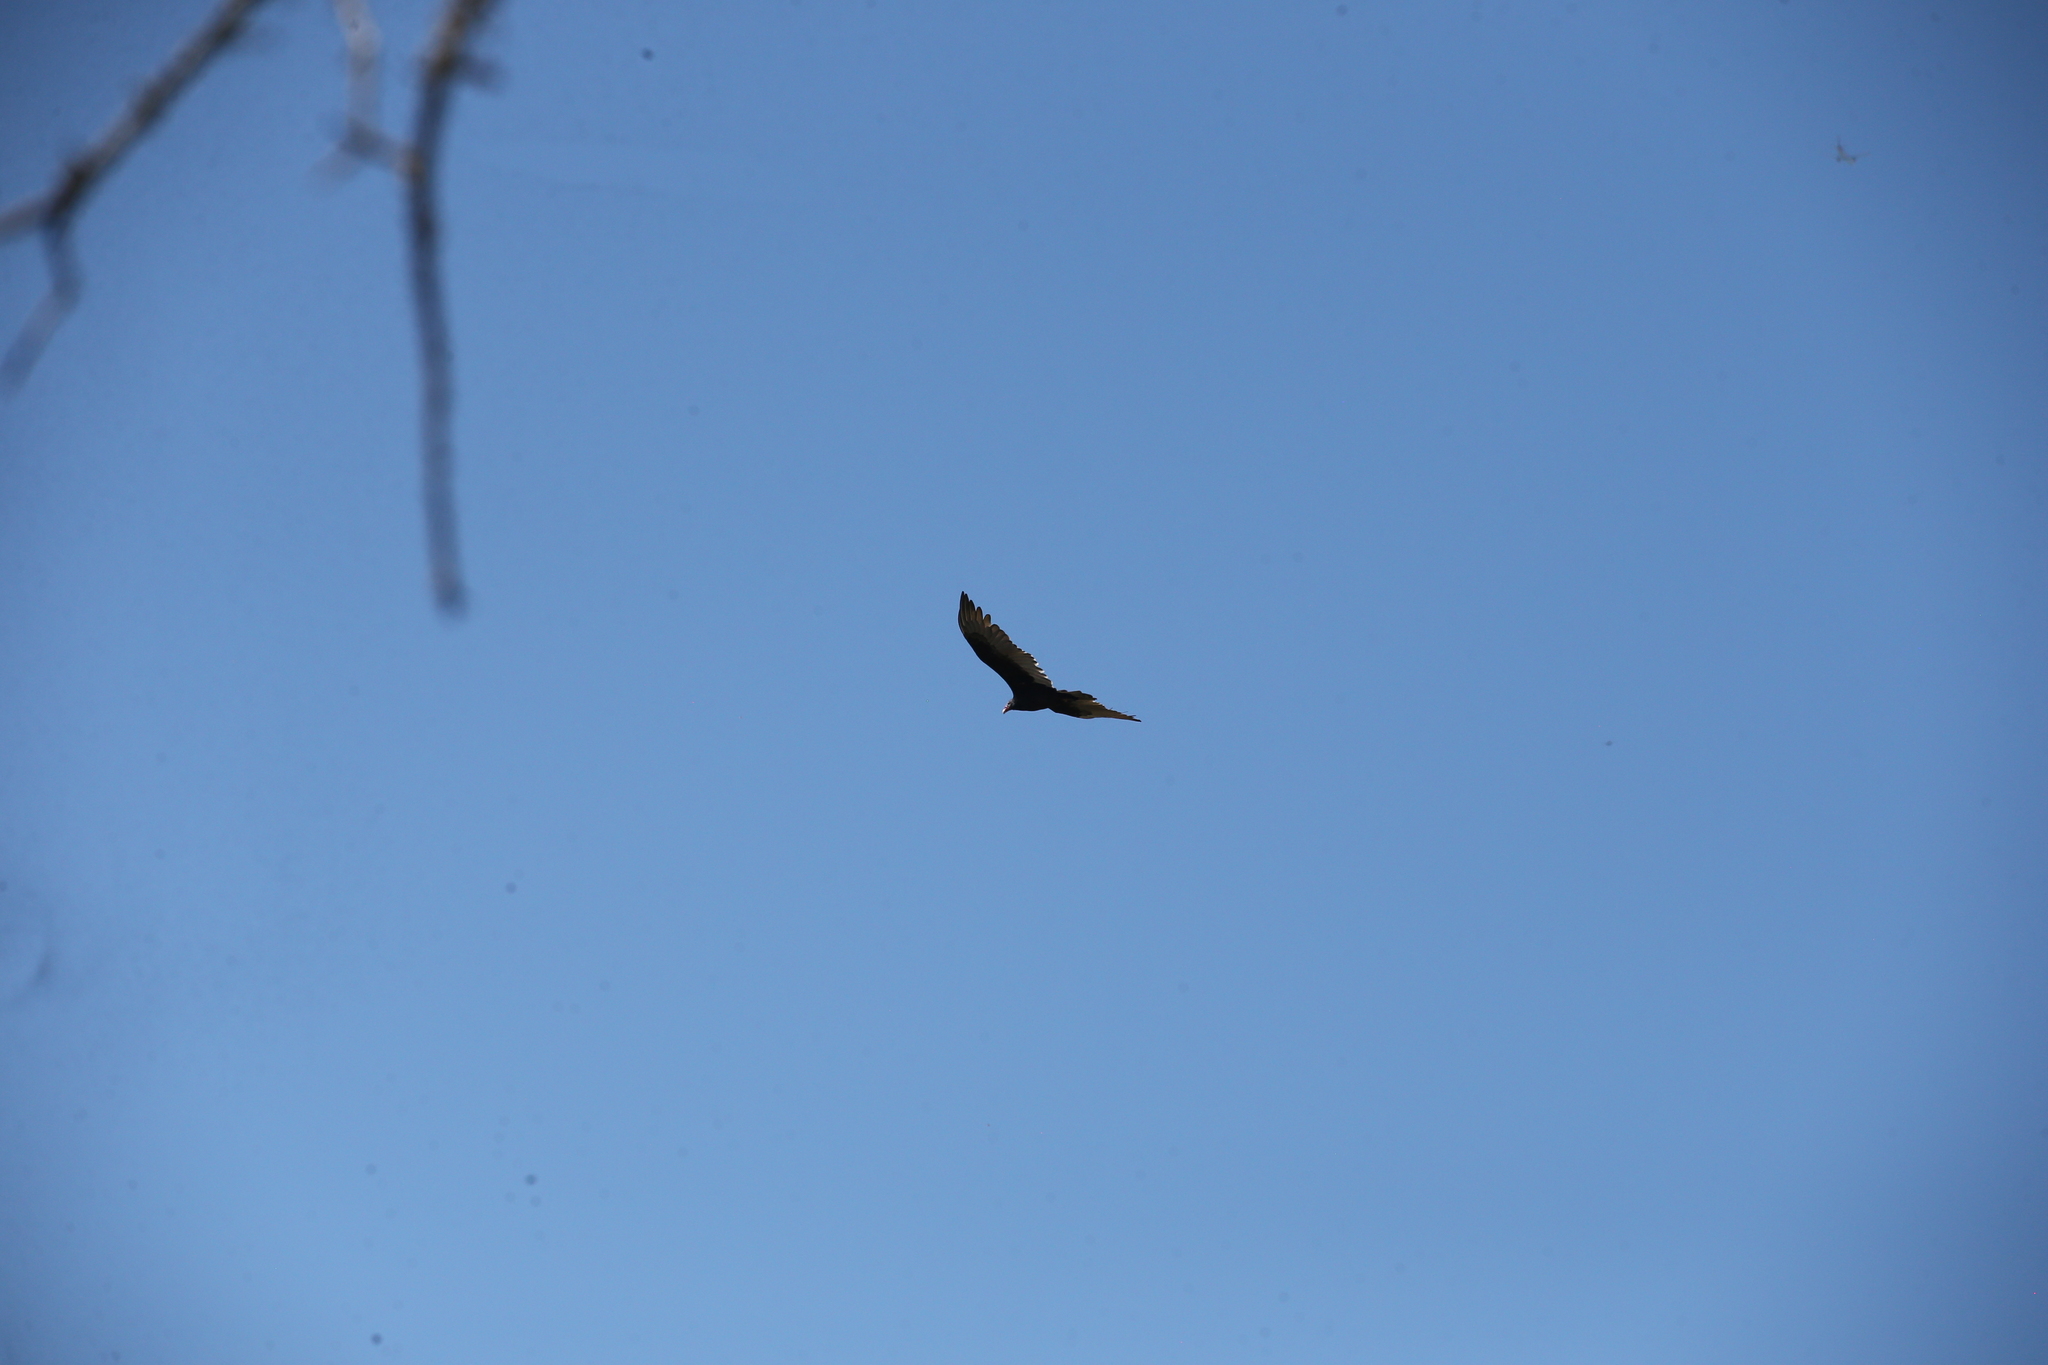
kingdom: Animalia
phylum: Chordata
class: Aves
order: Accipitriformes
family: Cathartidae
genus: Cathartes
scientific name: Cathartes aura
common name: Turkey vulture
